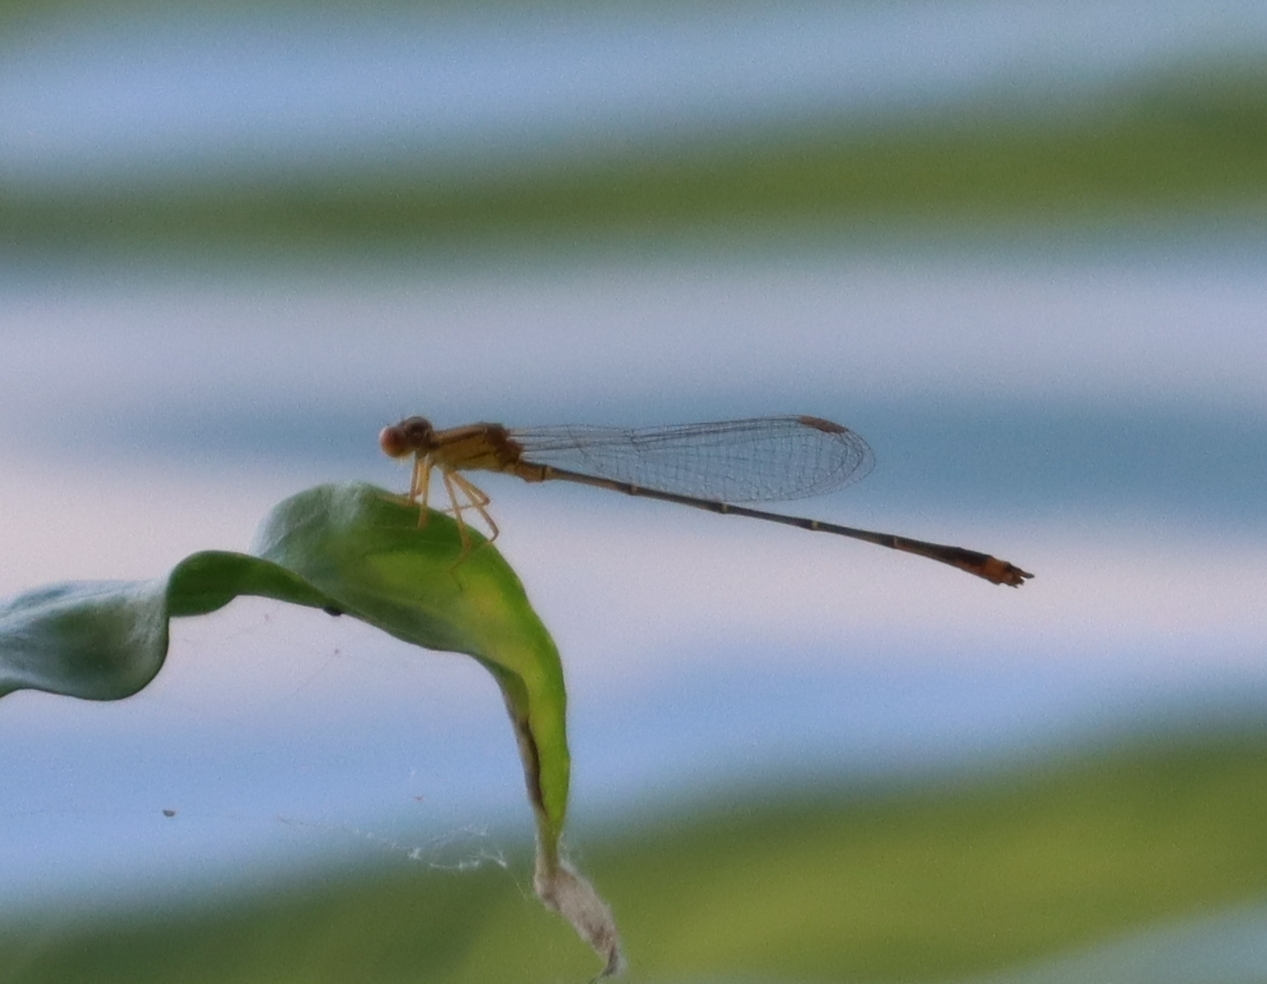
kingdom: Animalia
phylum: Arthropoda
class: Insecta
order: Odonata
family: Coenagrionidae
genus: Enallagma
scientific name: Enallagma signatum
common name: Orange bluet
